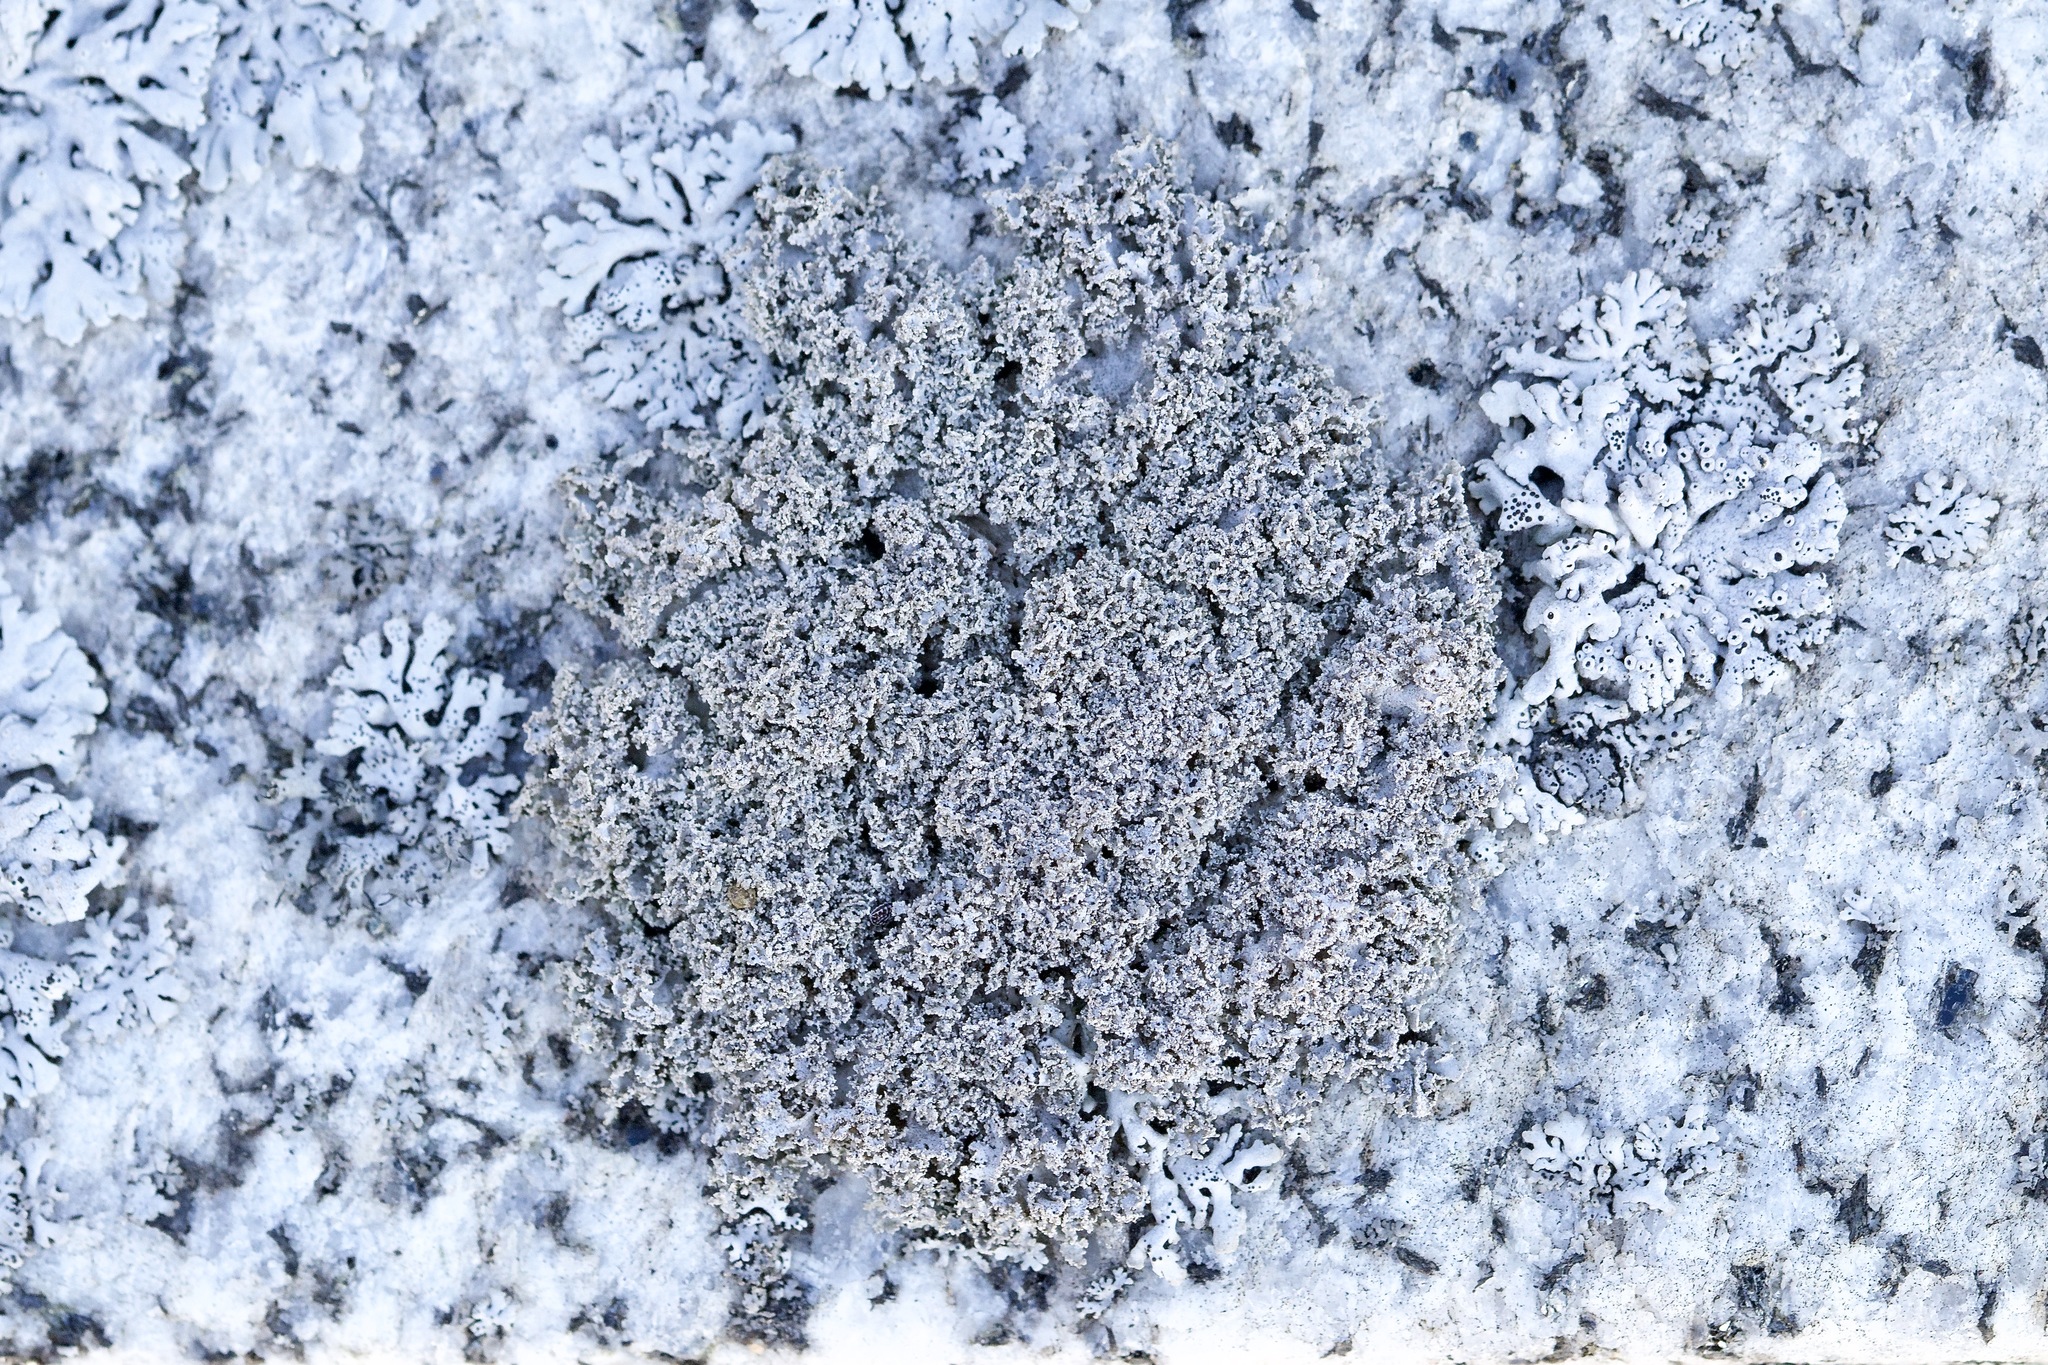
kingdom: Fungi
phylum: Ascomycota
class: Lecanoromycetes
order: Caliciales
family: Physciaceae
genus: Physcia
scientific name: Physcia millegrana
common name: Rosette lichen
